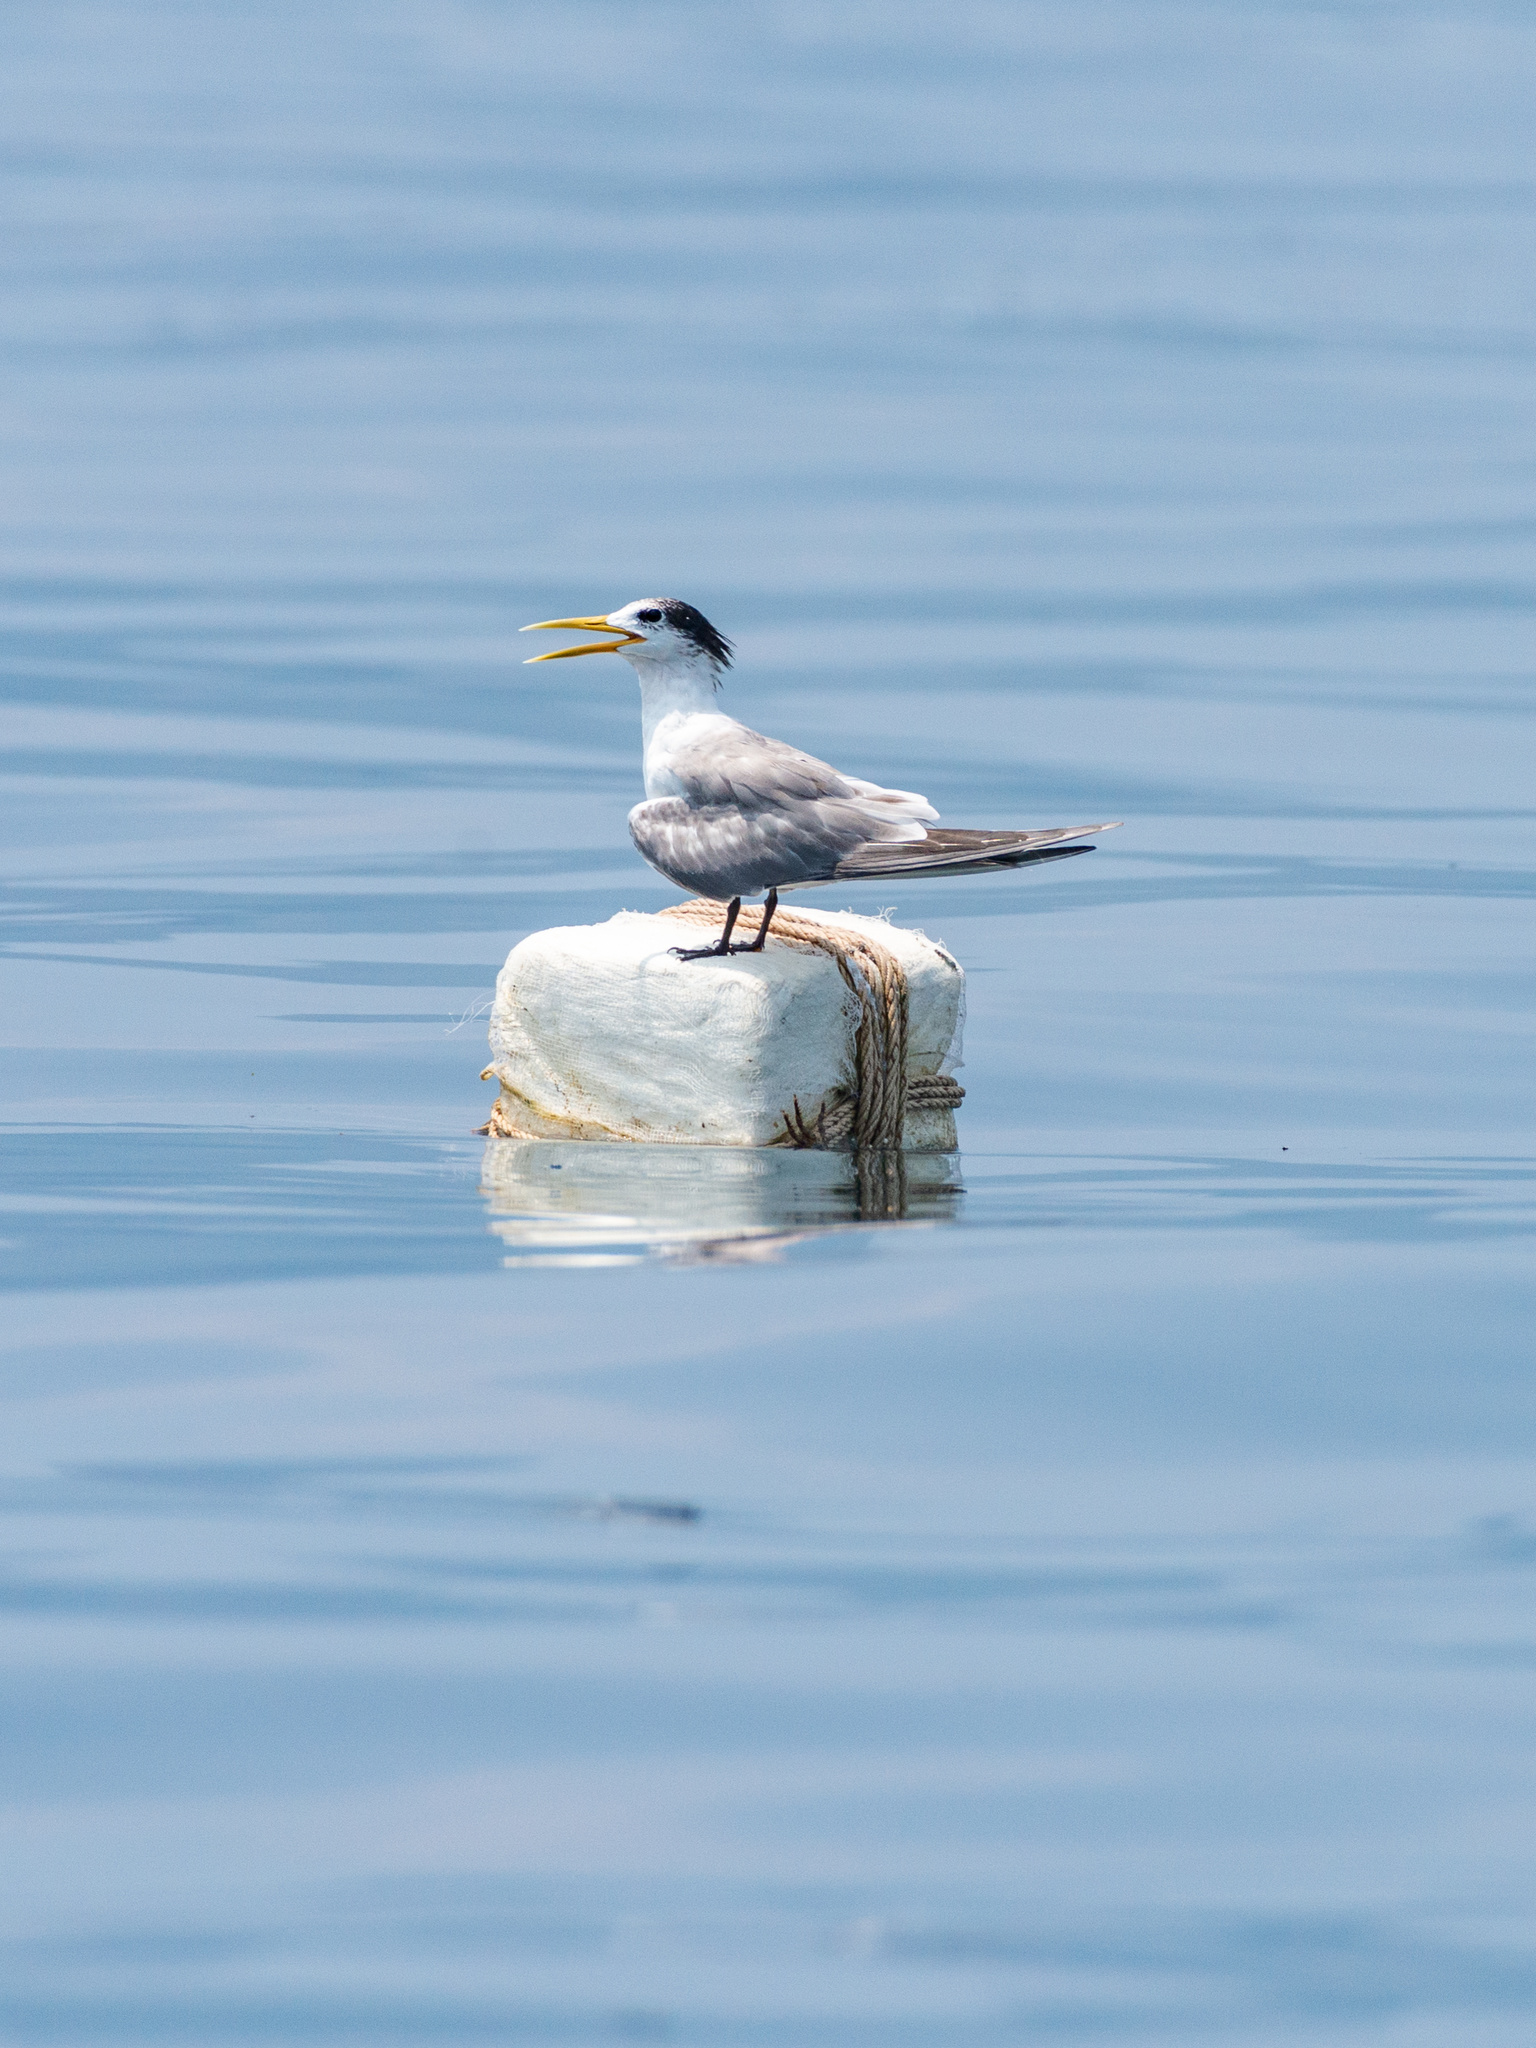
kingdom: Animalia
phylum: Chordata
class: Aves
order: Charadriiformes
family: Laridae
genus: Thalasseus
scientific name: Thalasseus bergii
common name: Greater crested tern
